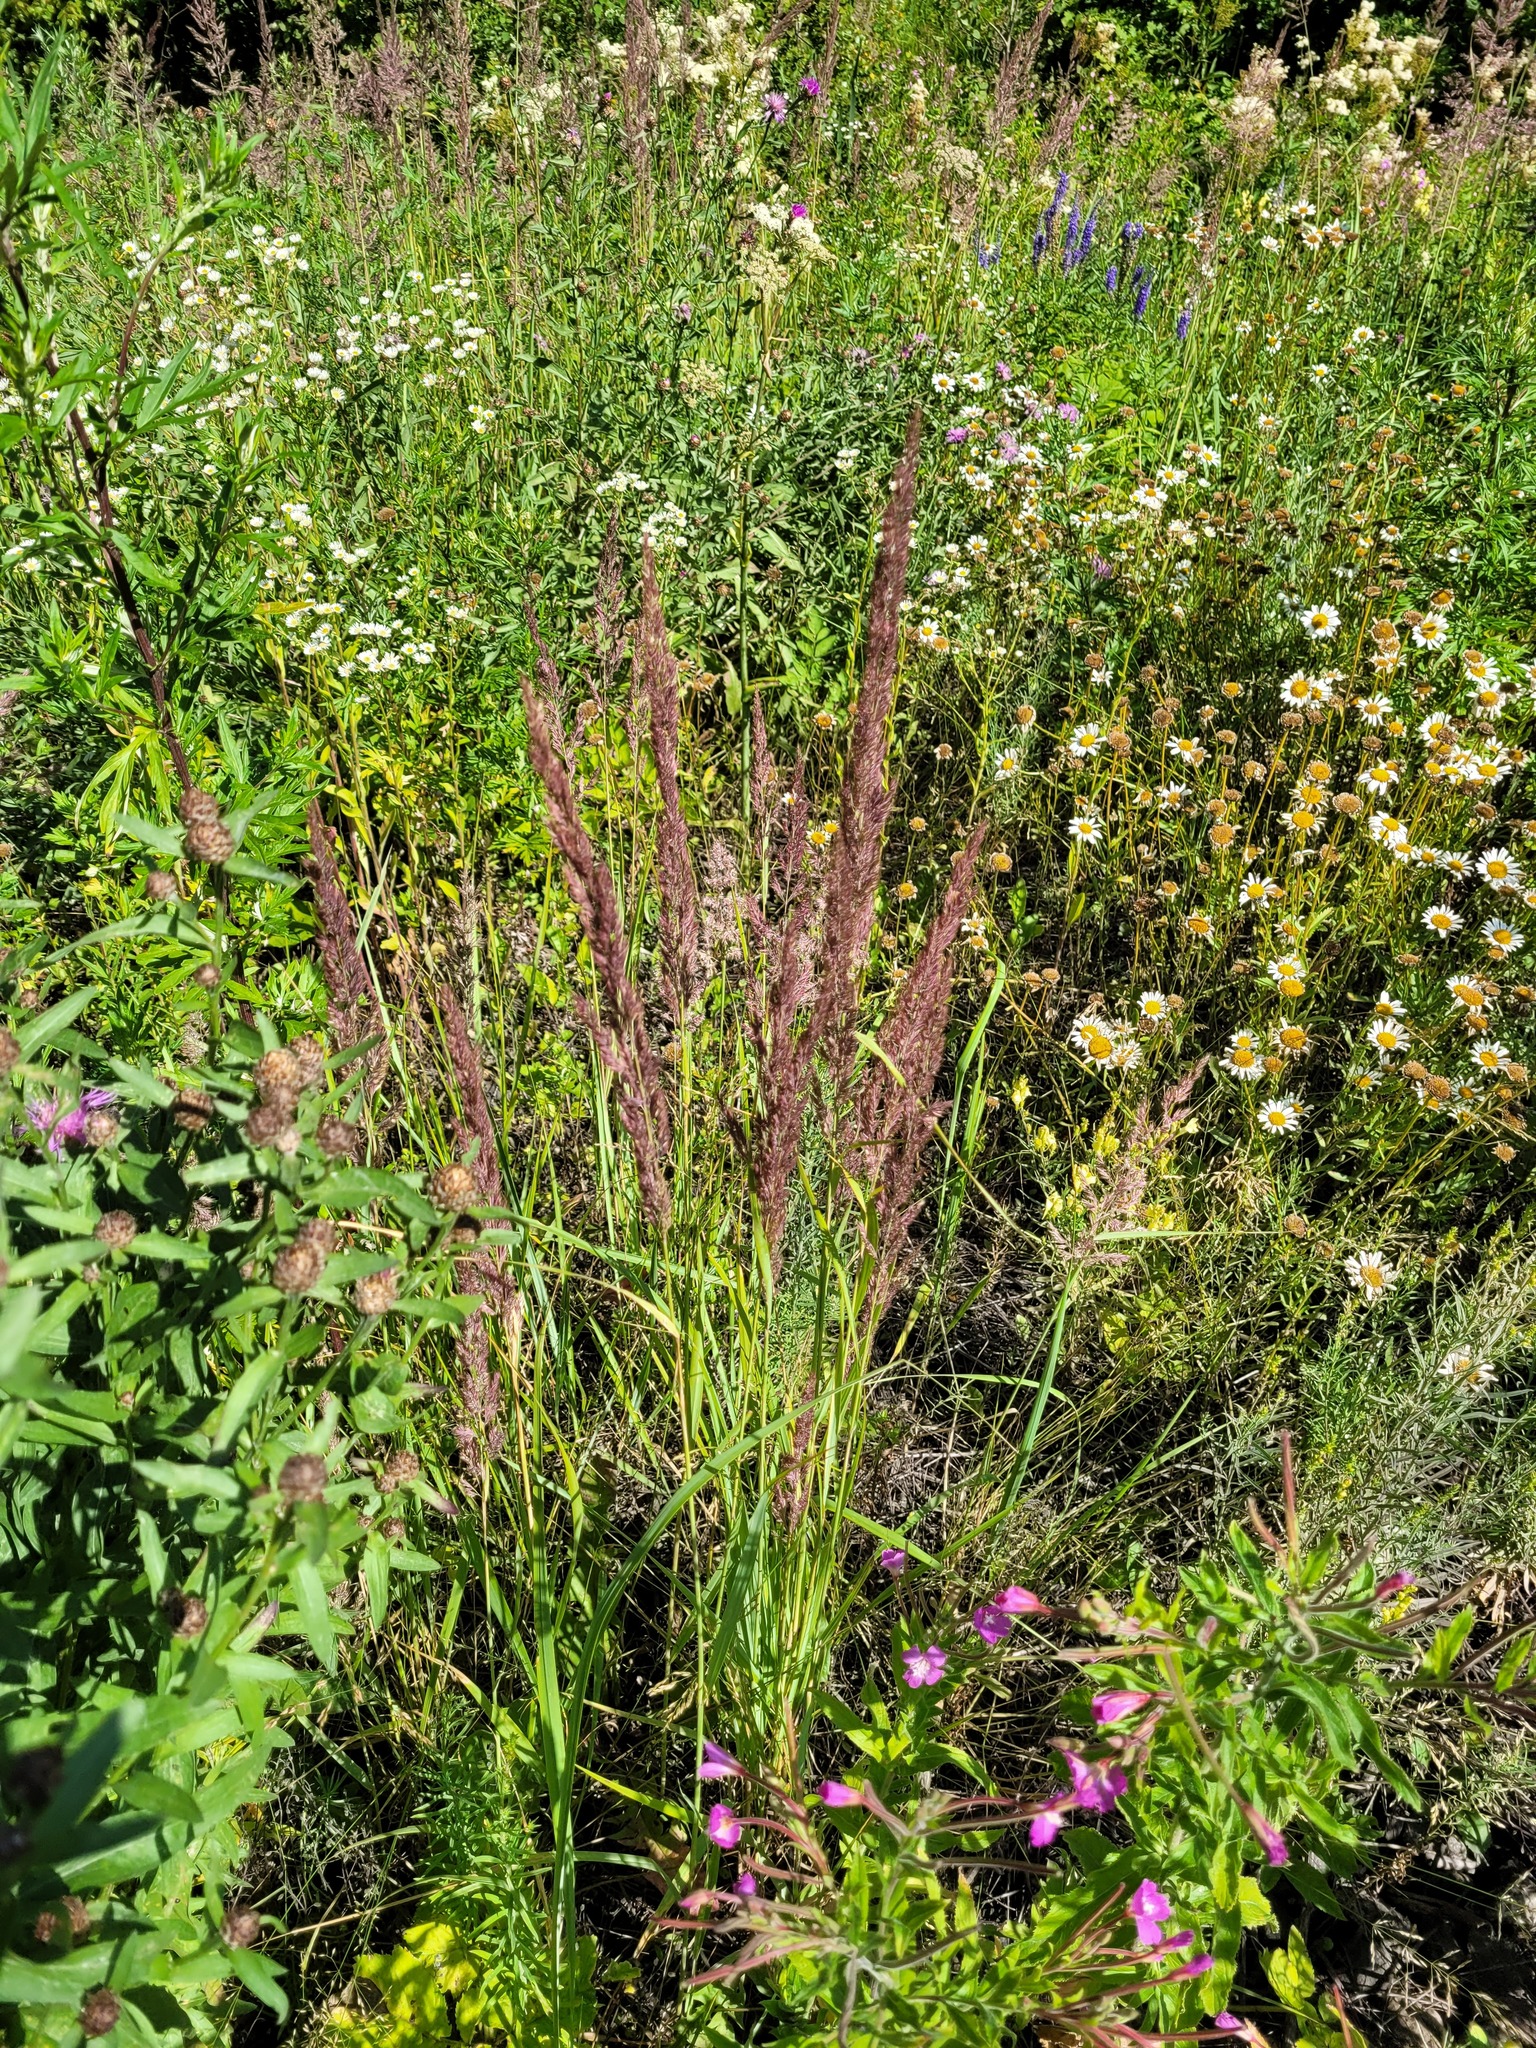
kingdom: Plantae
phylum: Tracheophyta
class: Liliopsida
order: Poales
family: Poaceae
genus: Calamagrostis
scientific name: Calamagrostis epigejos
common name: Wood small-reed
